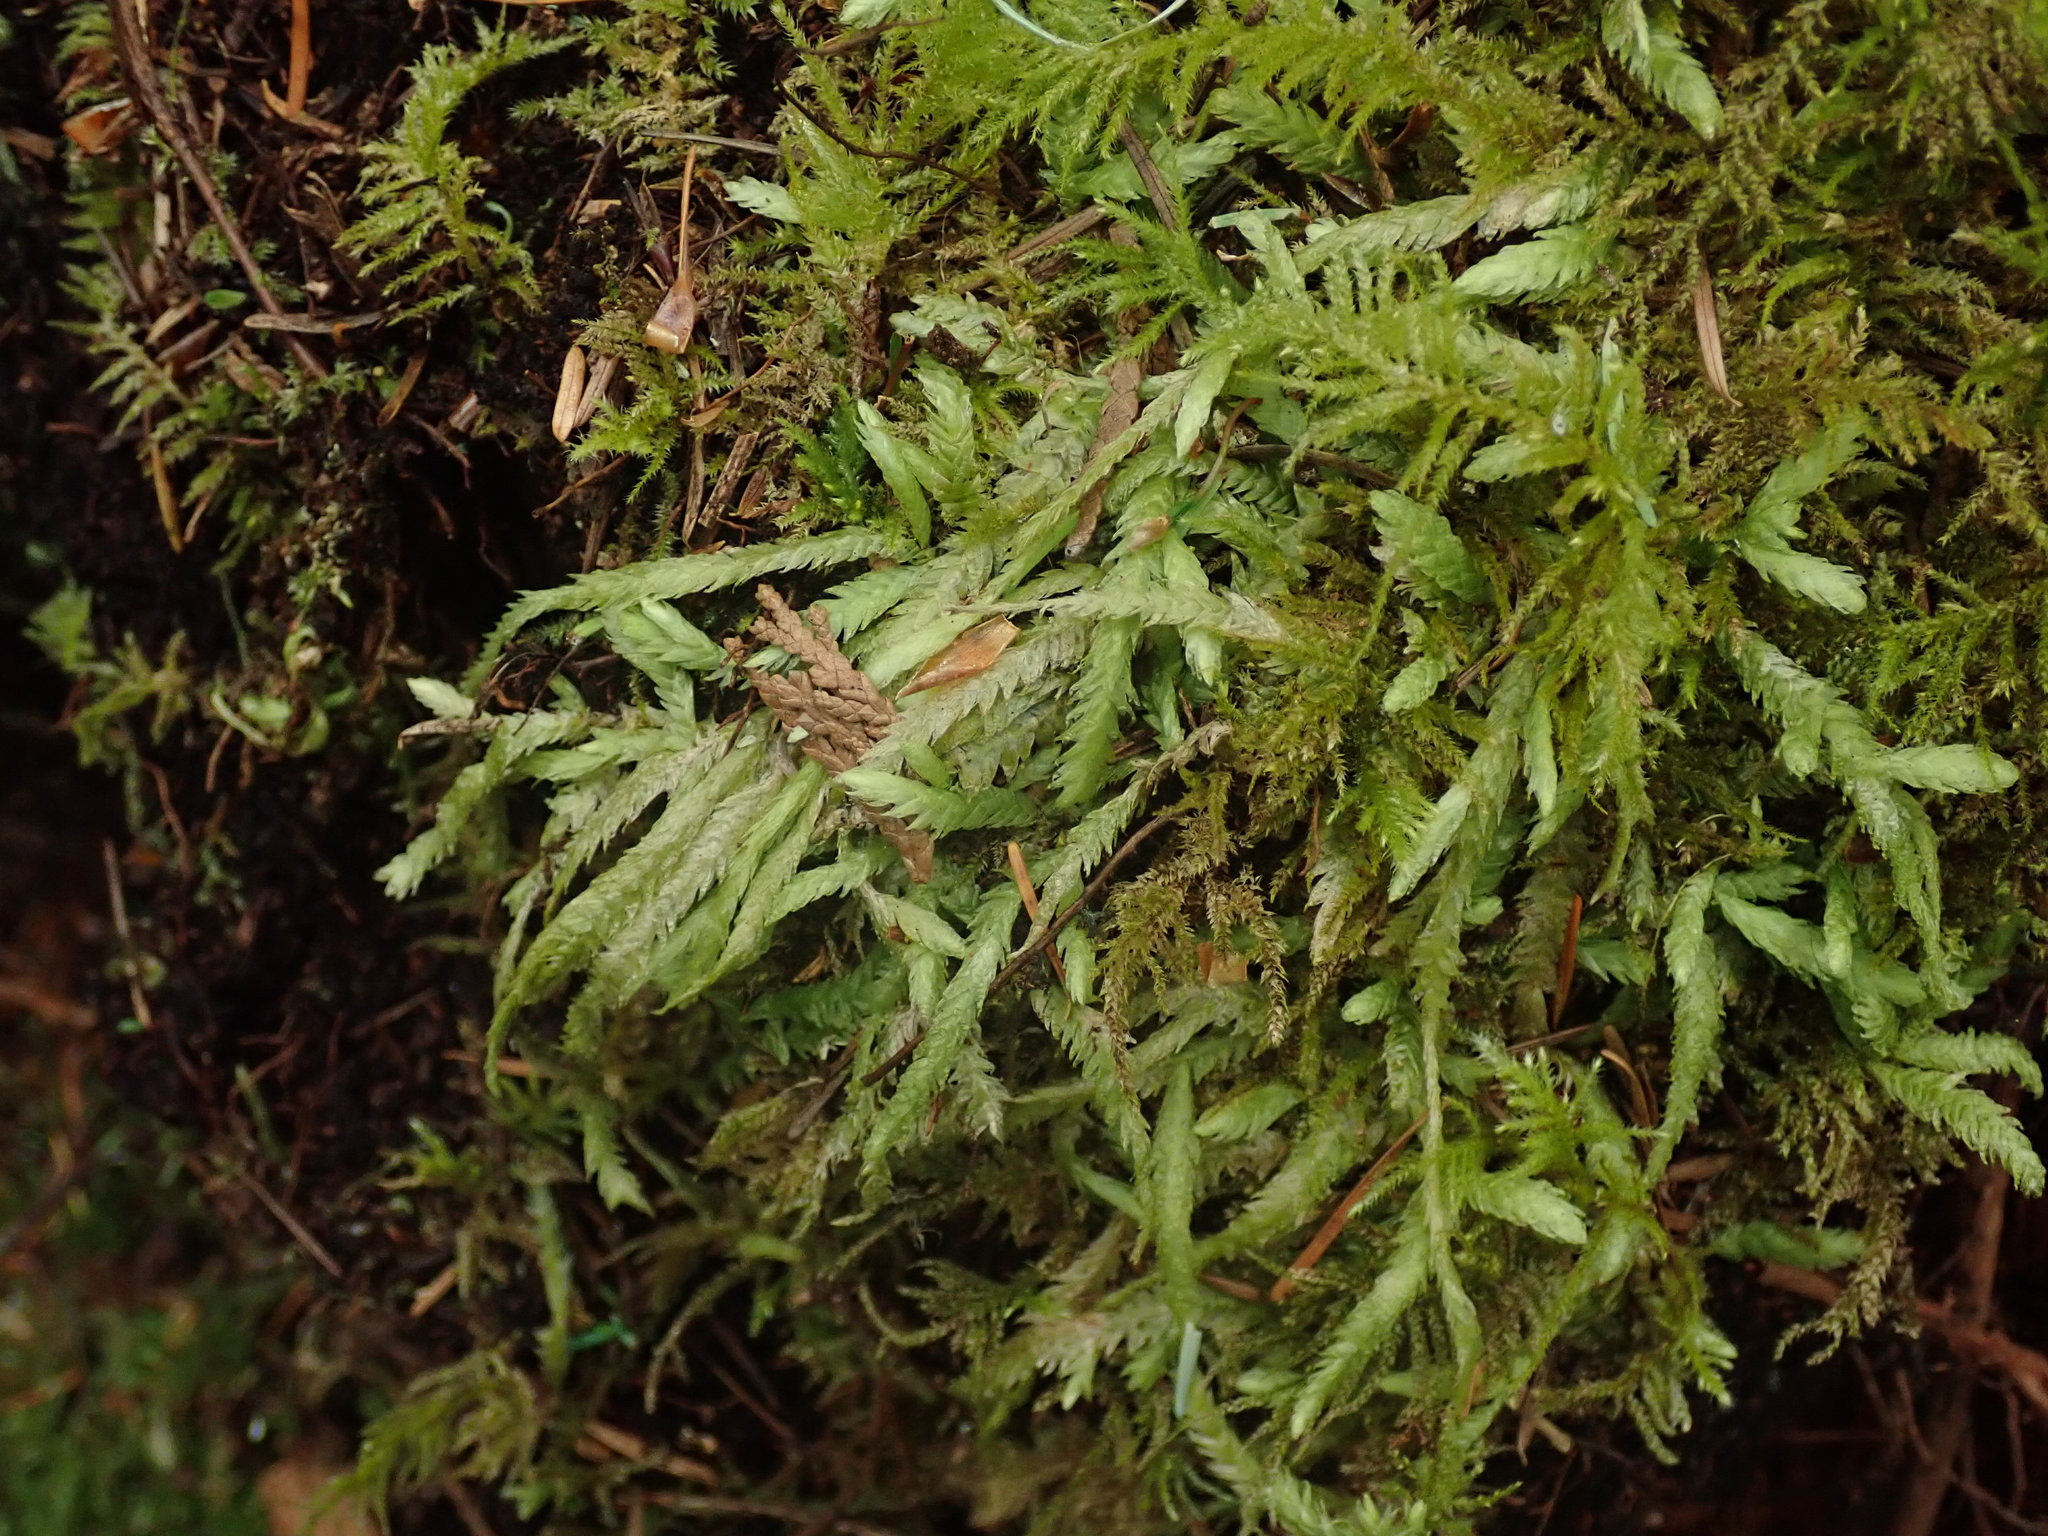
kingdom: Plantae
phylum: Bryophyta
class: Bryopsida
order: Hypnales
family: Plagiotheciaceae
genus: Plagiothecium
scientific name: Plagiothecium undulatum
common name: Waved silk-moss
